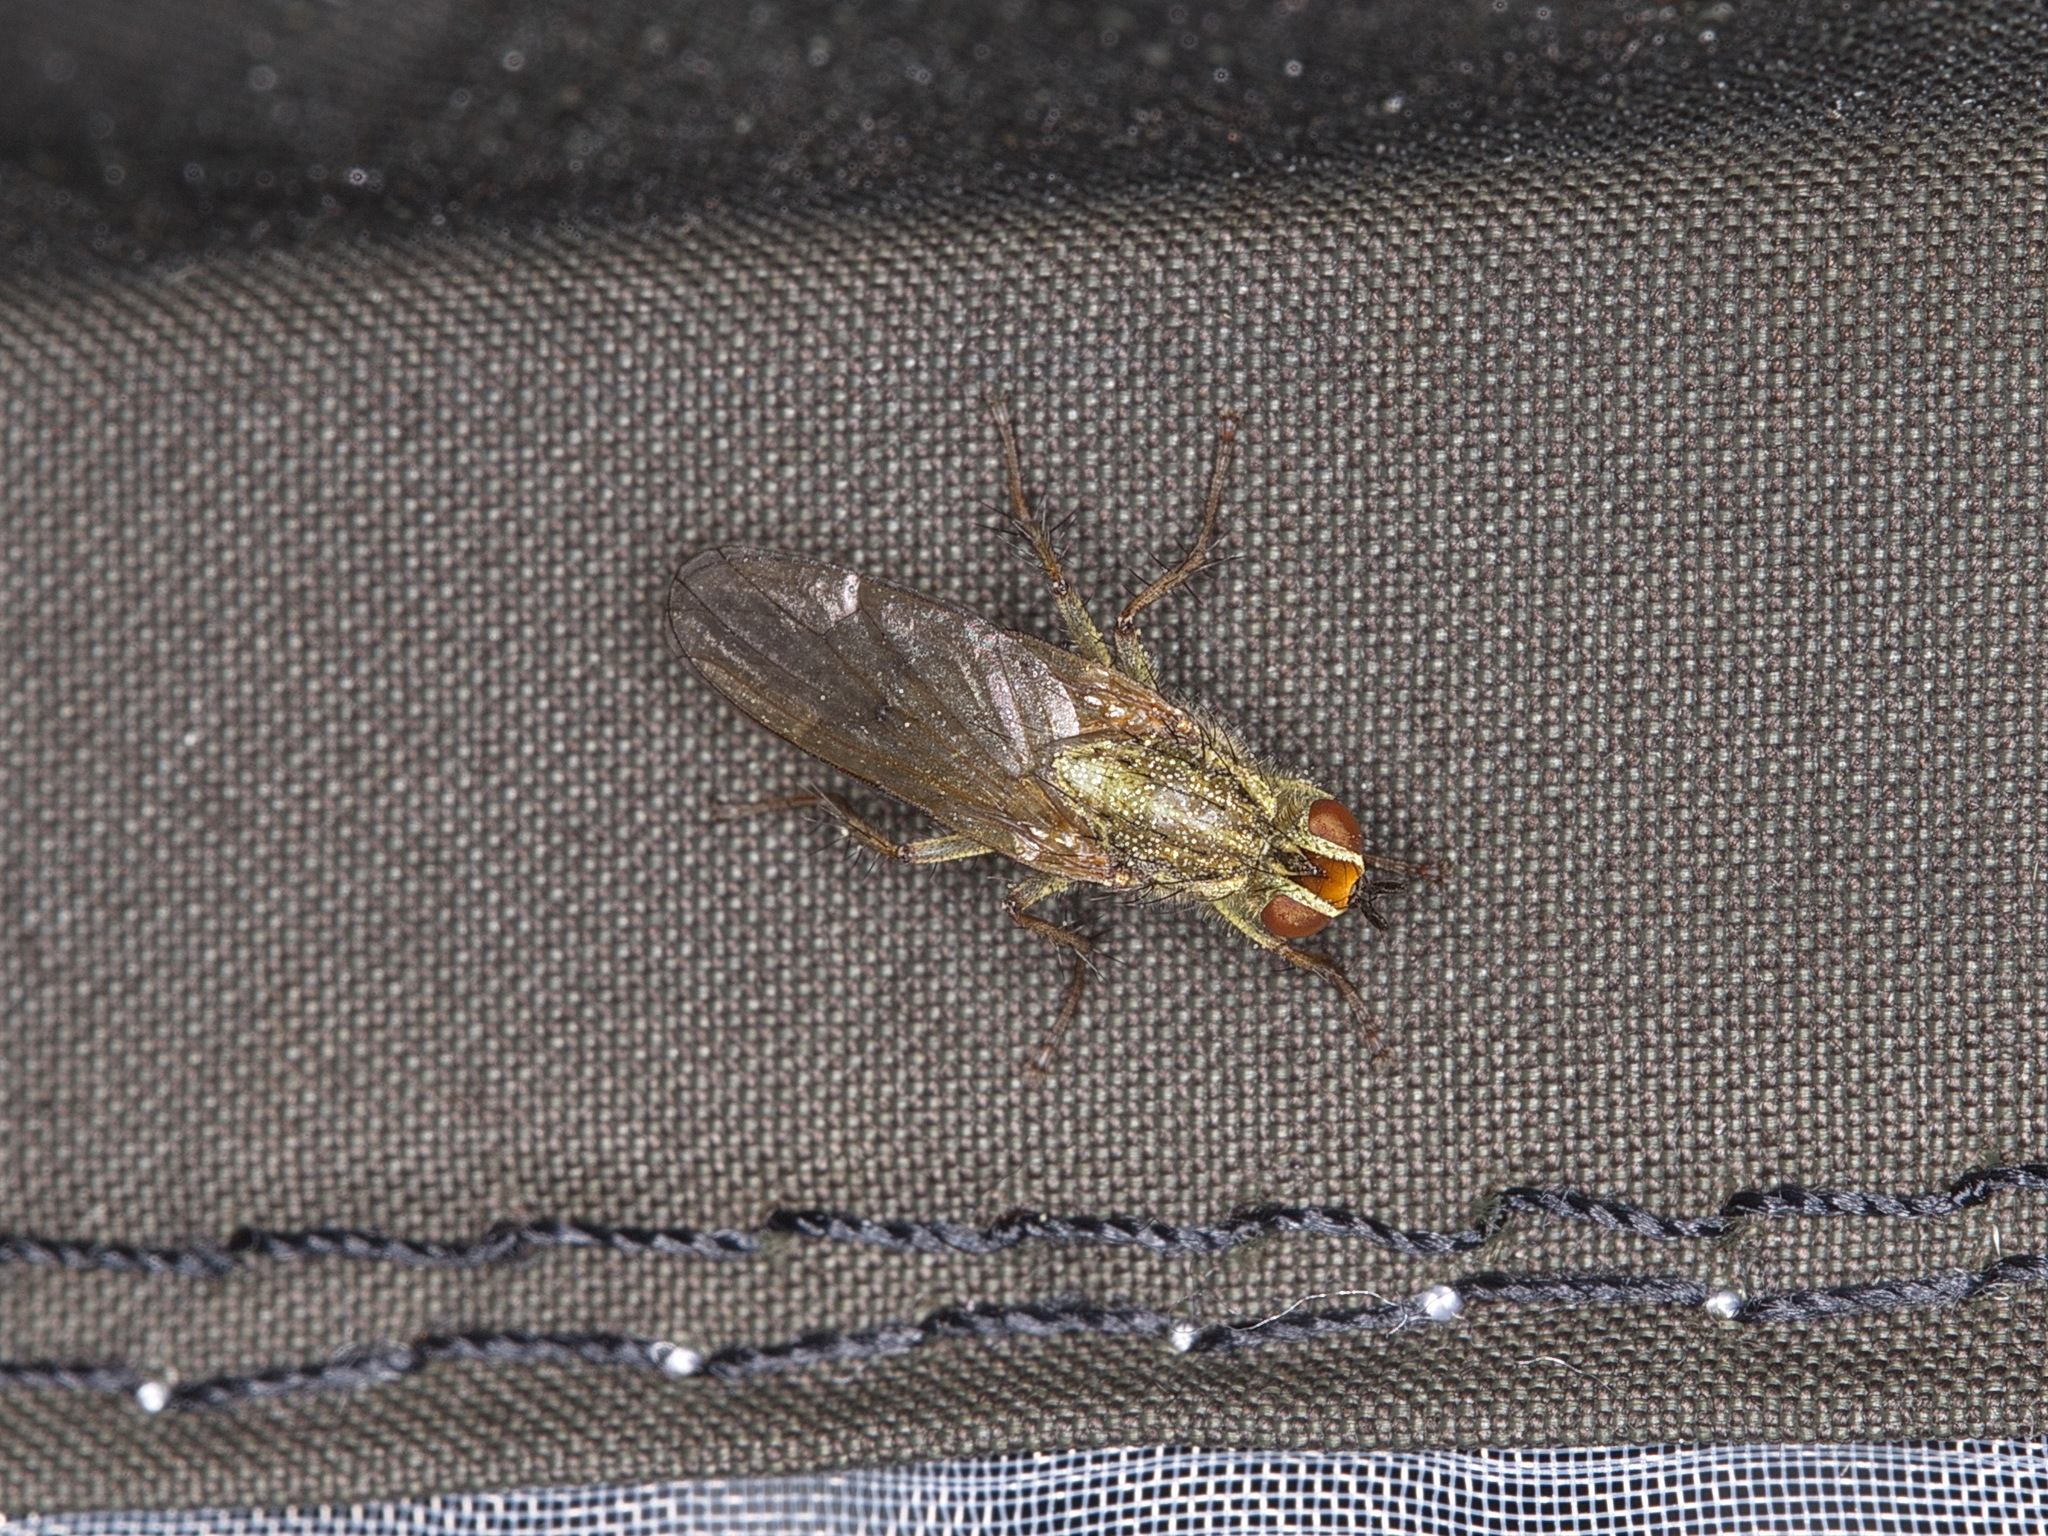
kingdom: Animalia
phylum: Arthropoda
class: Insecta
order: Diptera
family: Scathophagidae
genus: Scathophaga
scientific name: Scathophaga stercoraria
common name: Yellow dung fly
